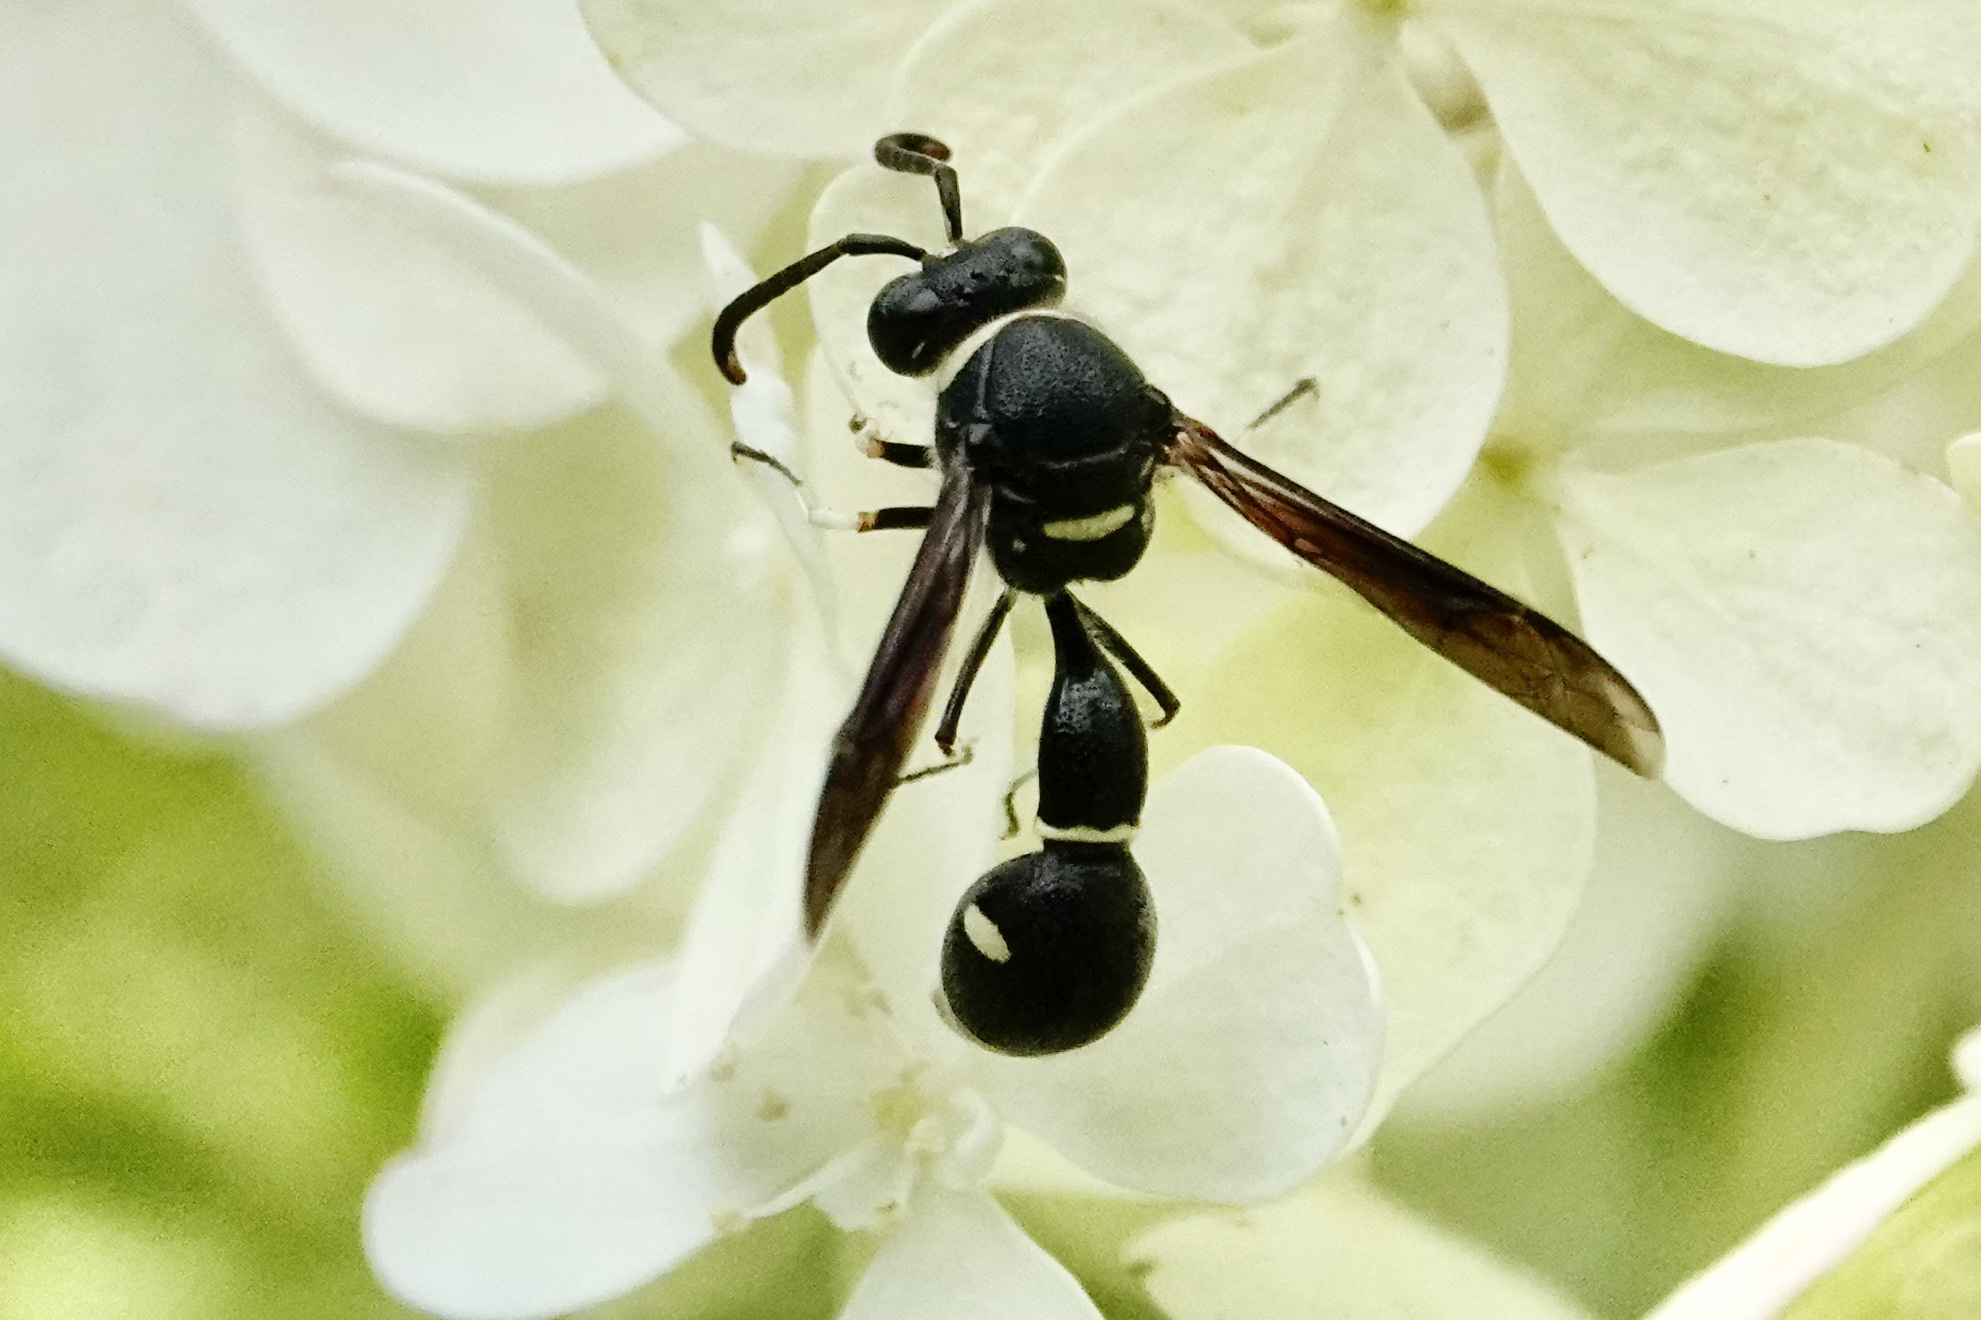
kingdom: Animalia
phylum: Arthropoda
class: Insecta
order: Hymenoptera
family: Vespidae
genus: Eumenes
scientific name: Eumenes fraternus
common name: Fraternal potter wasp
